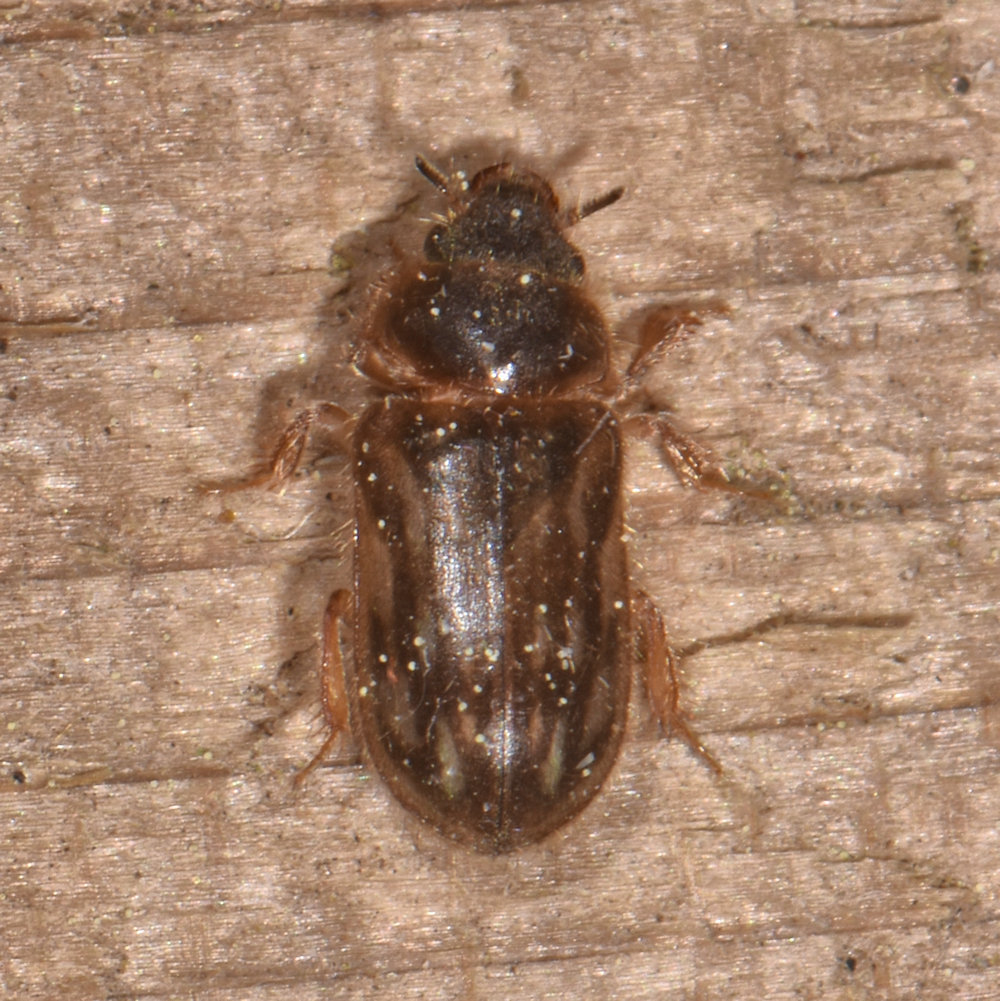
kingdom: Animalia
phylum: Arthropoda
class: Insecta
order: Coleoptera
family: Heteroceridae
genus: Heterocerus
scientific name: Heterocerus fenestratus
